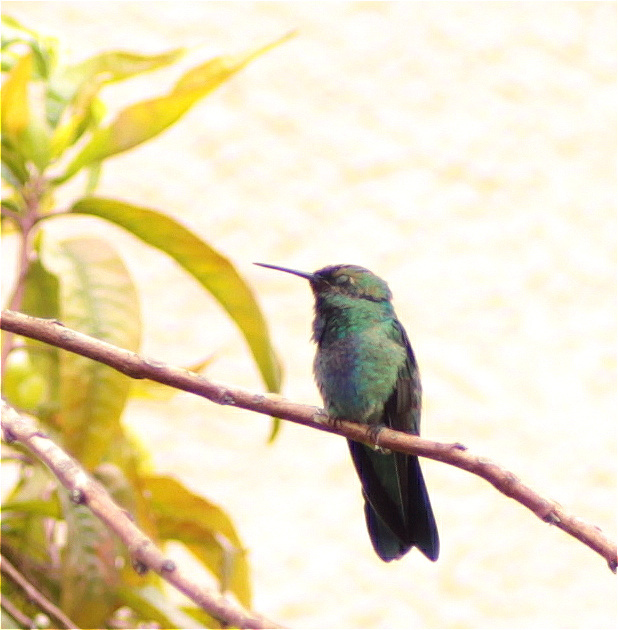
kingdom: Animalia
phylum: Chordata
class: Aves
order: Apodiformes
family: Trochilidae
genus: Colibri
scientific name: Colibri coruscans
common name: Sparkling violetear
